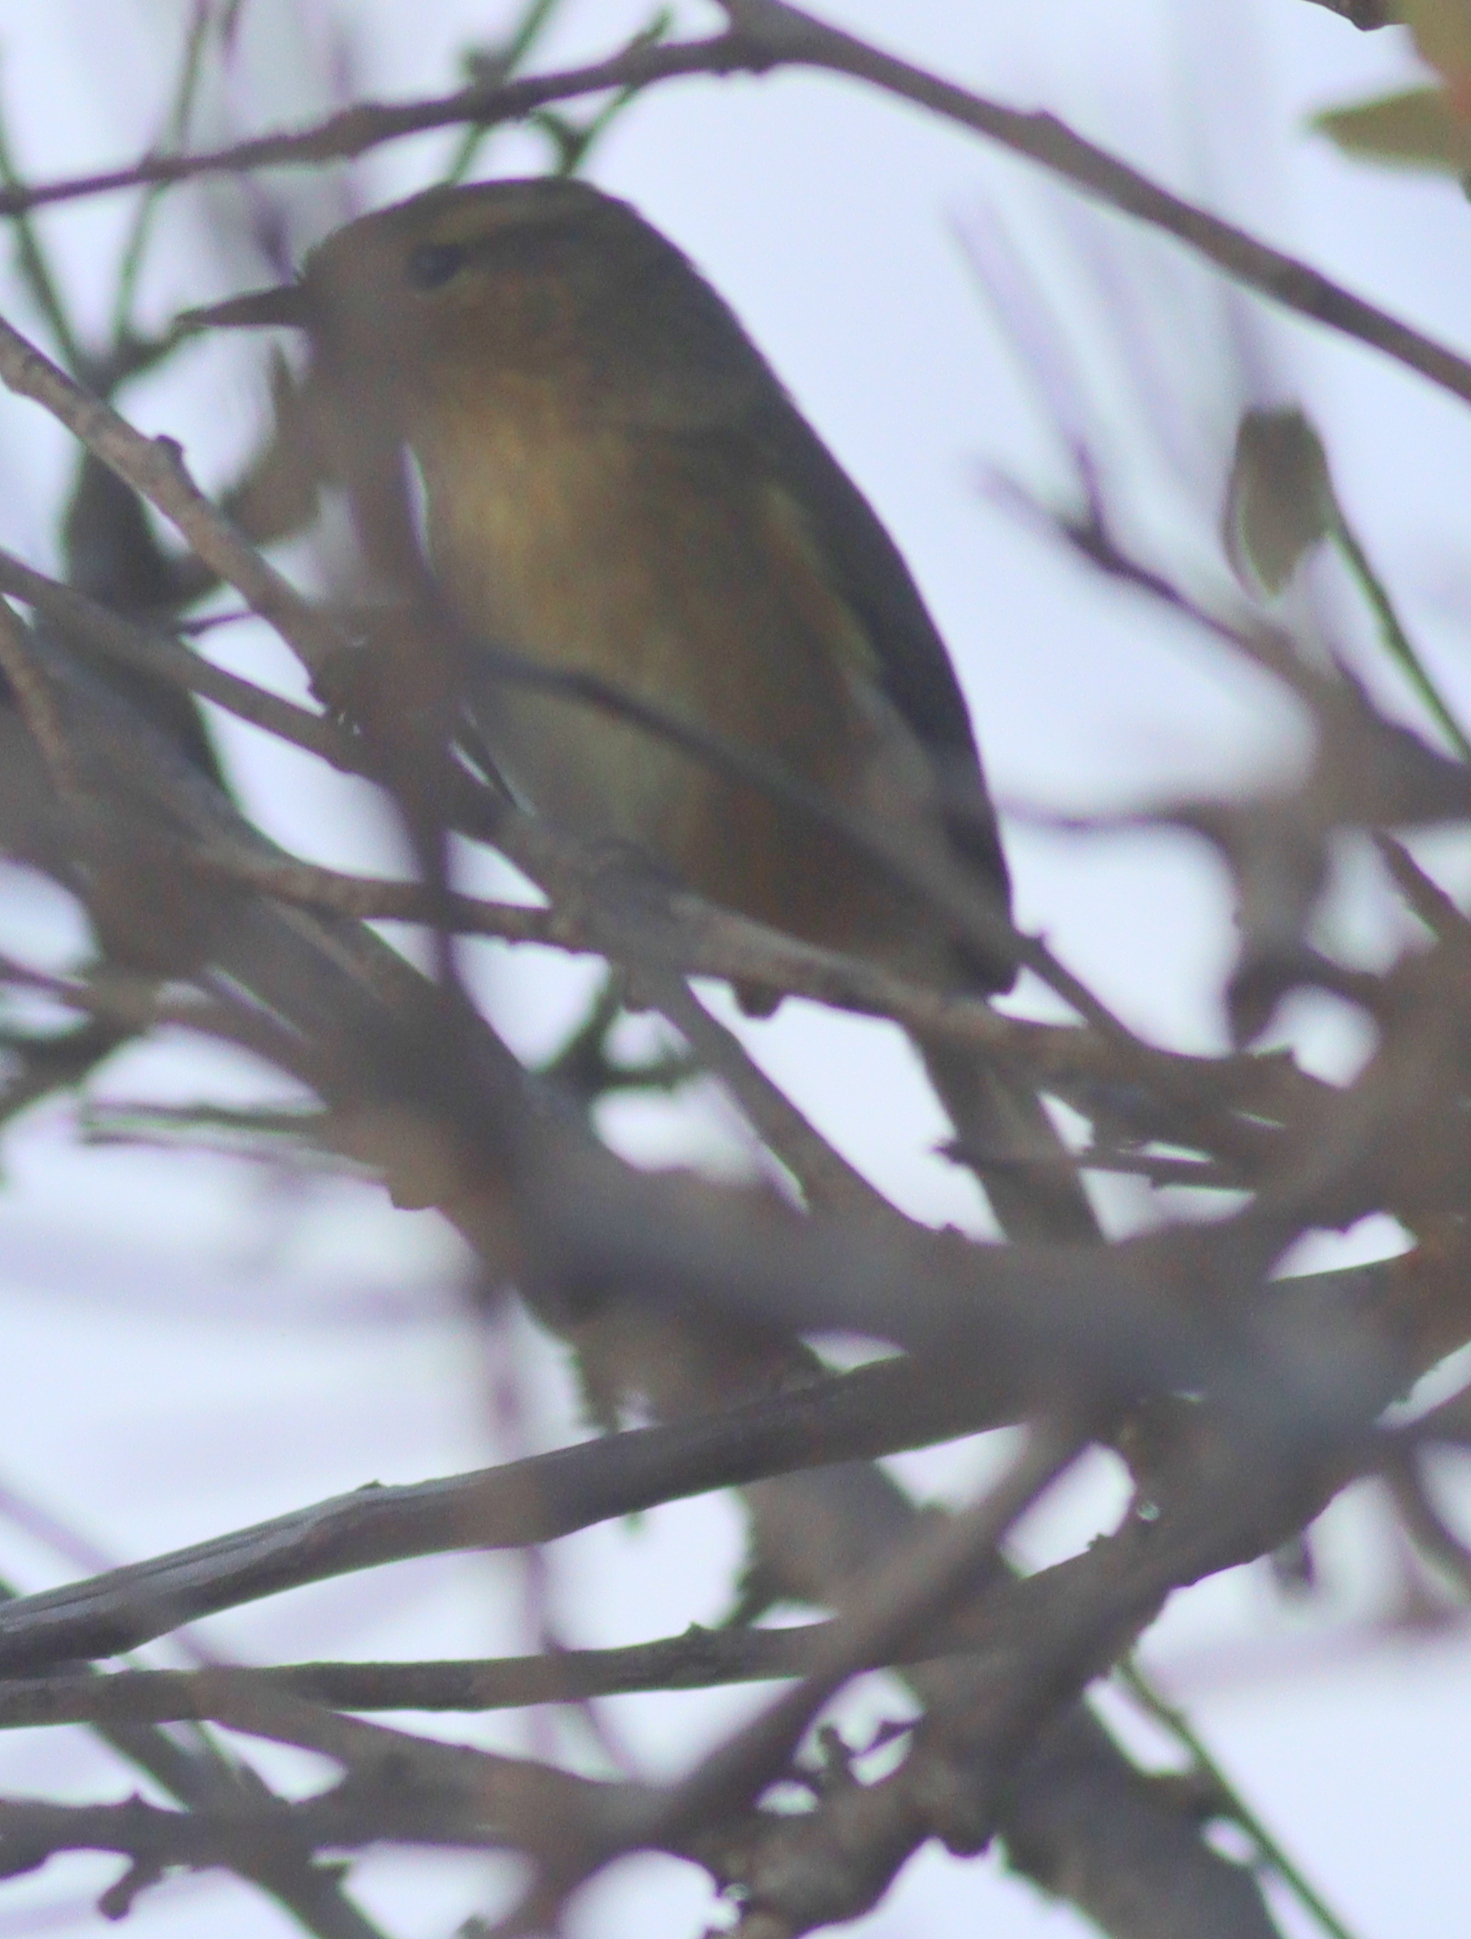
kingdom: Animalia
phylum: Chordata
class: Aves
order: Passeriformes
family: Phylloscopidae
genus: Phylloscopus
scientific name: Phylloscopus canariensis
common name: Canary islands chiffchaff
